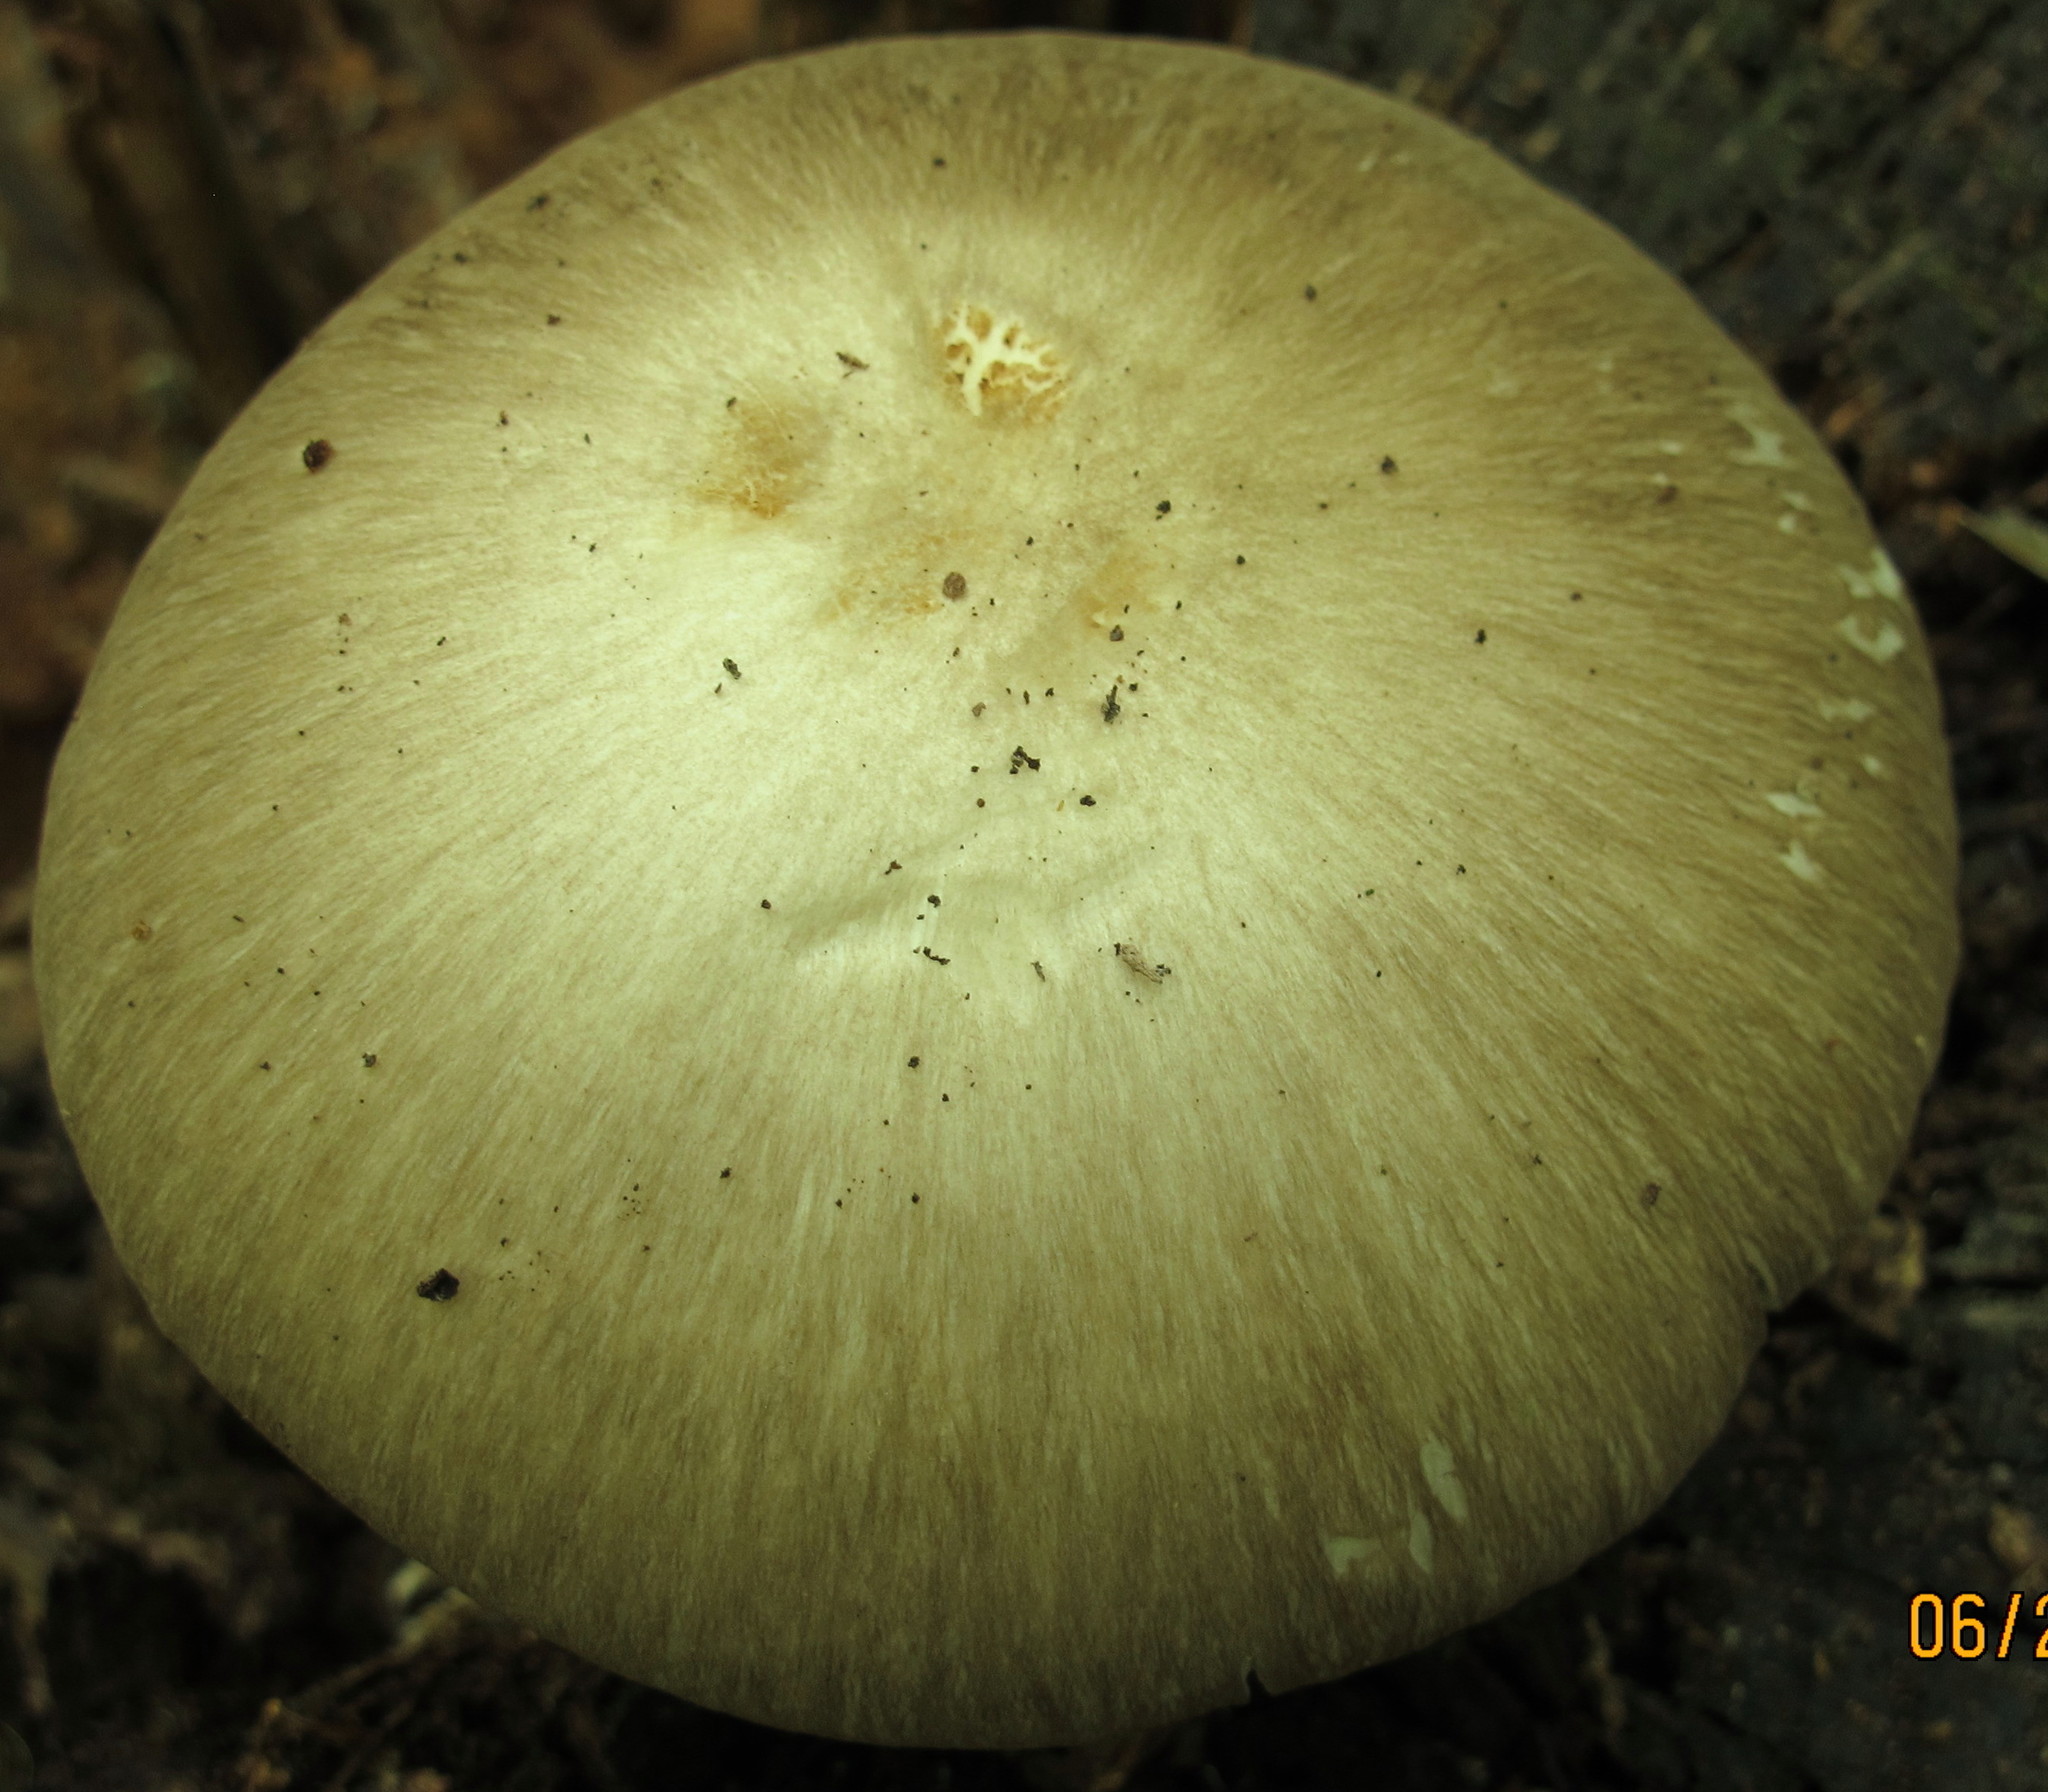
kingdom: Fungi
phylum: Basidiomycota
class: Agaricomycetes
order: Agaricales
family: Tricholomataceae
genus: Megacollybia
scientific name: Megacollybia rodmanii
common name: Eastern american platterful mushroom
